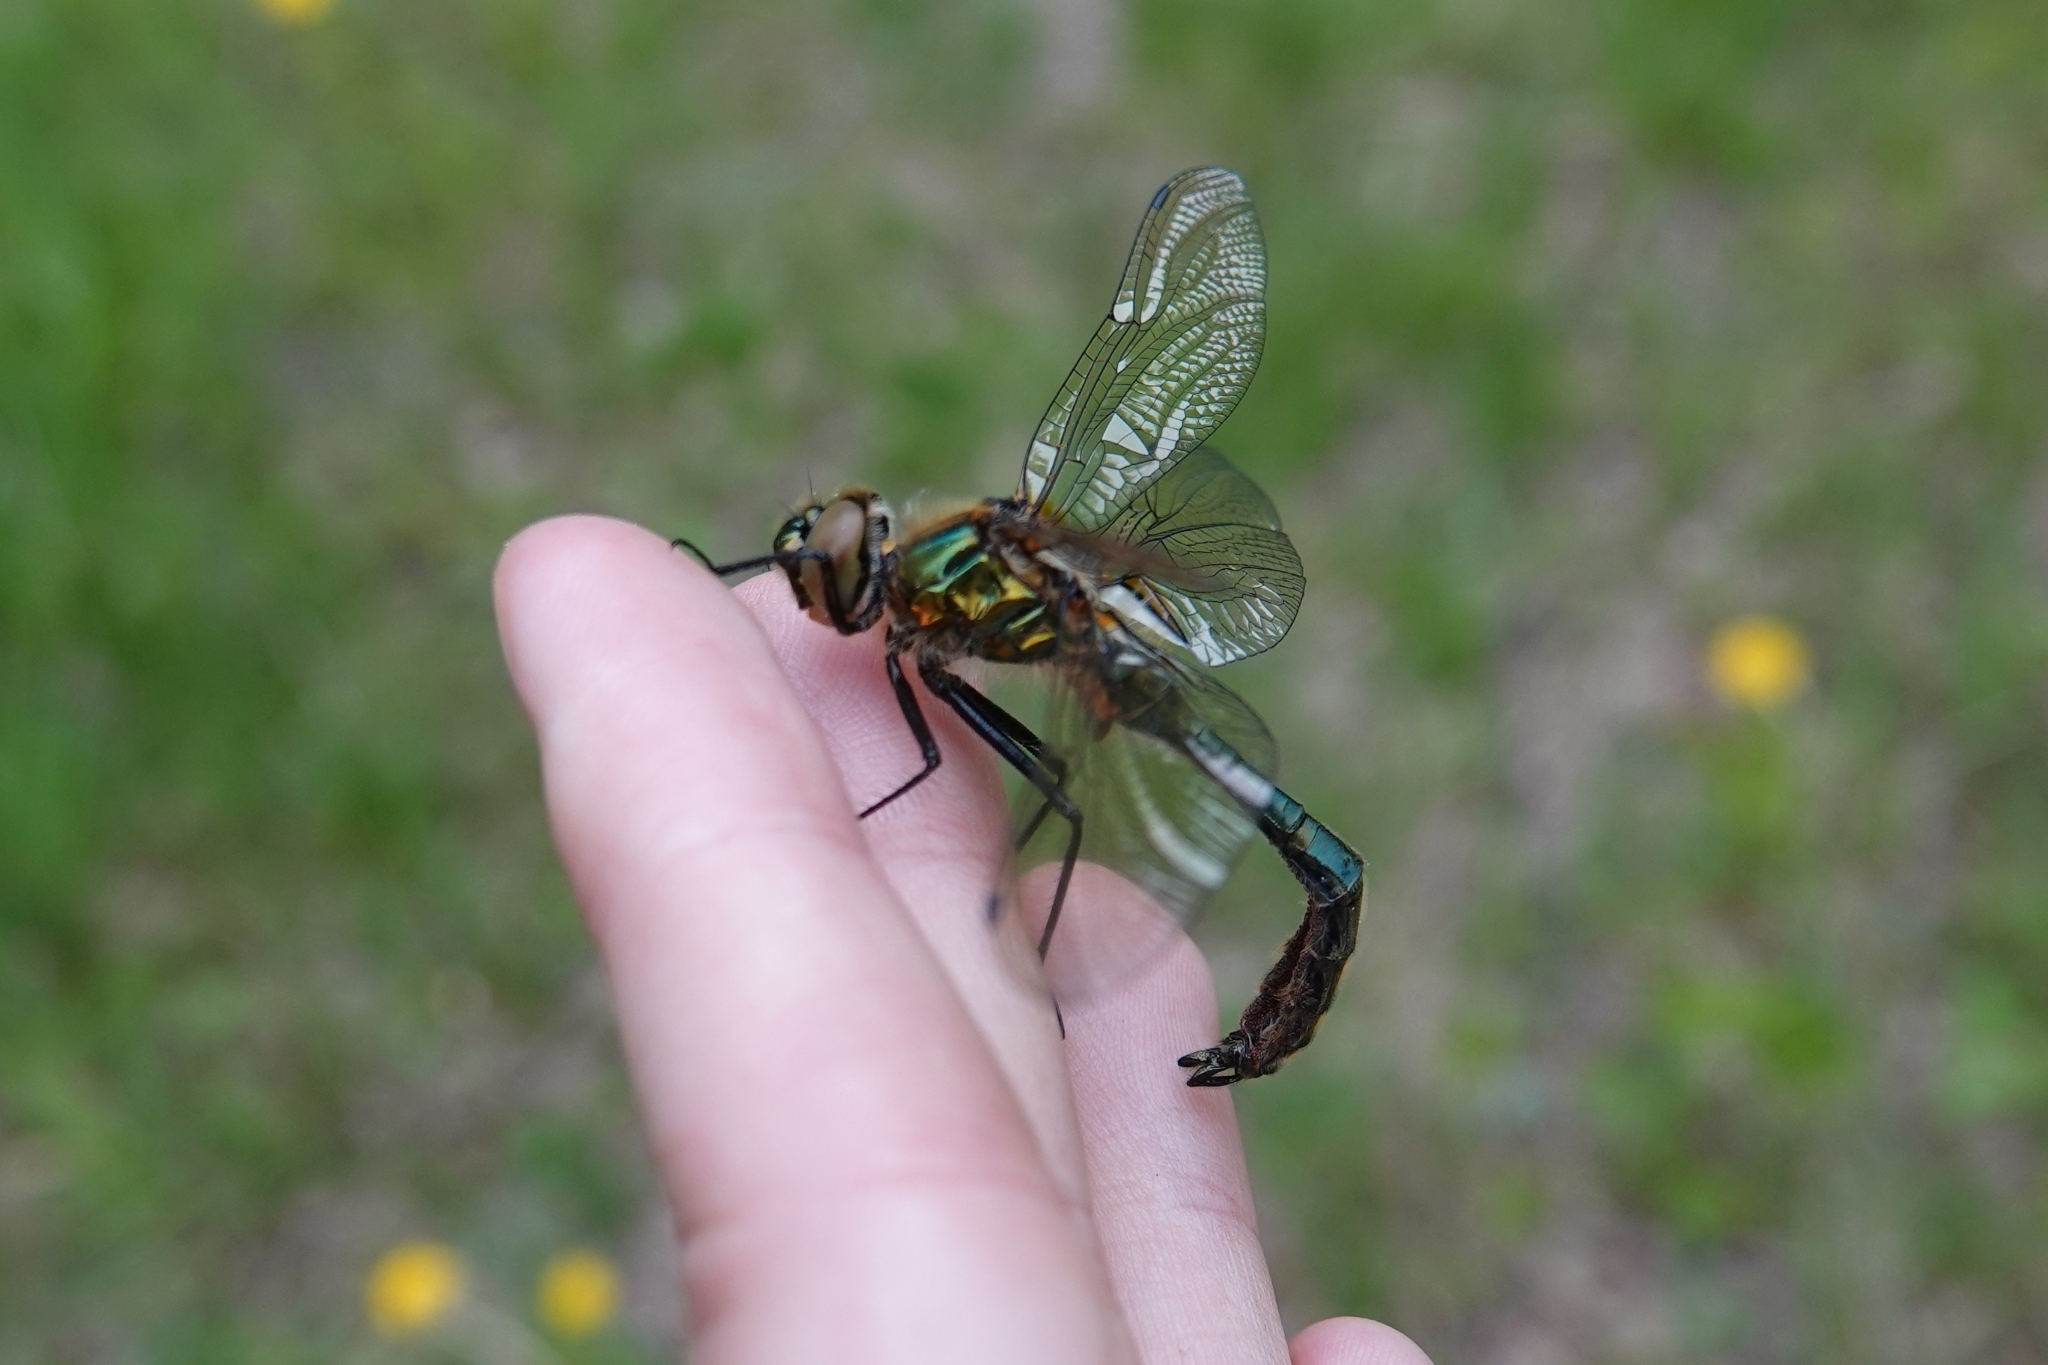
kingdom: Animalia
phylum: Arthropoda
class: Insecta
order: Odonata
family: Corduliidae
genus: Cordulia
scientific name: Cordulia aenea
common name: Downy emerald
